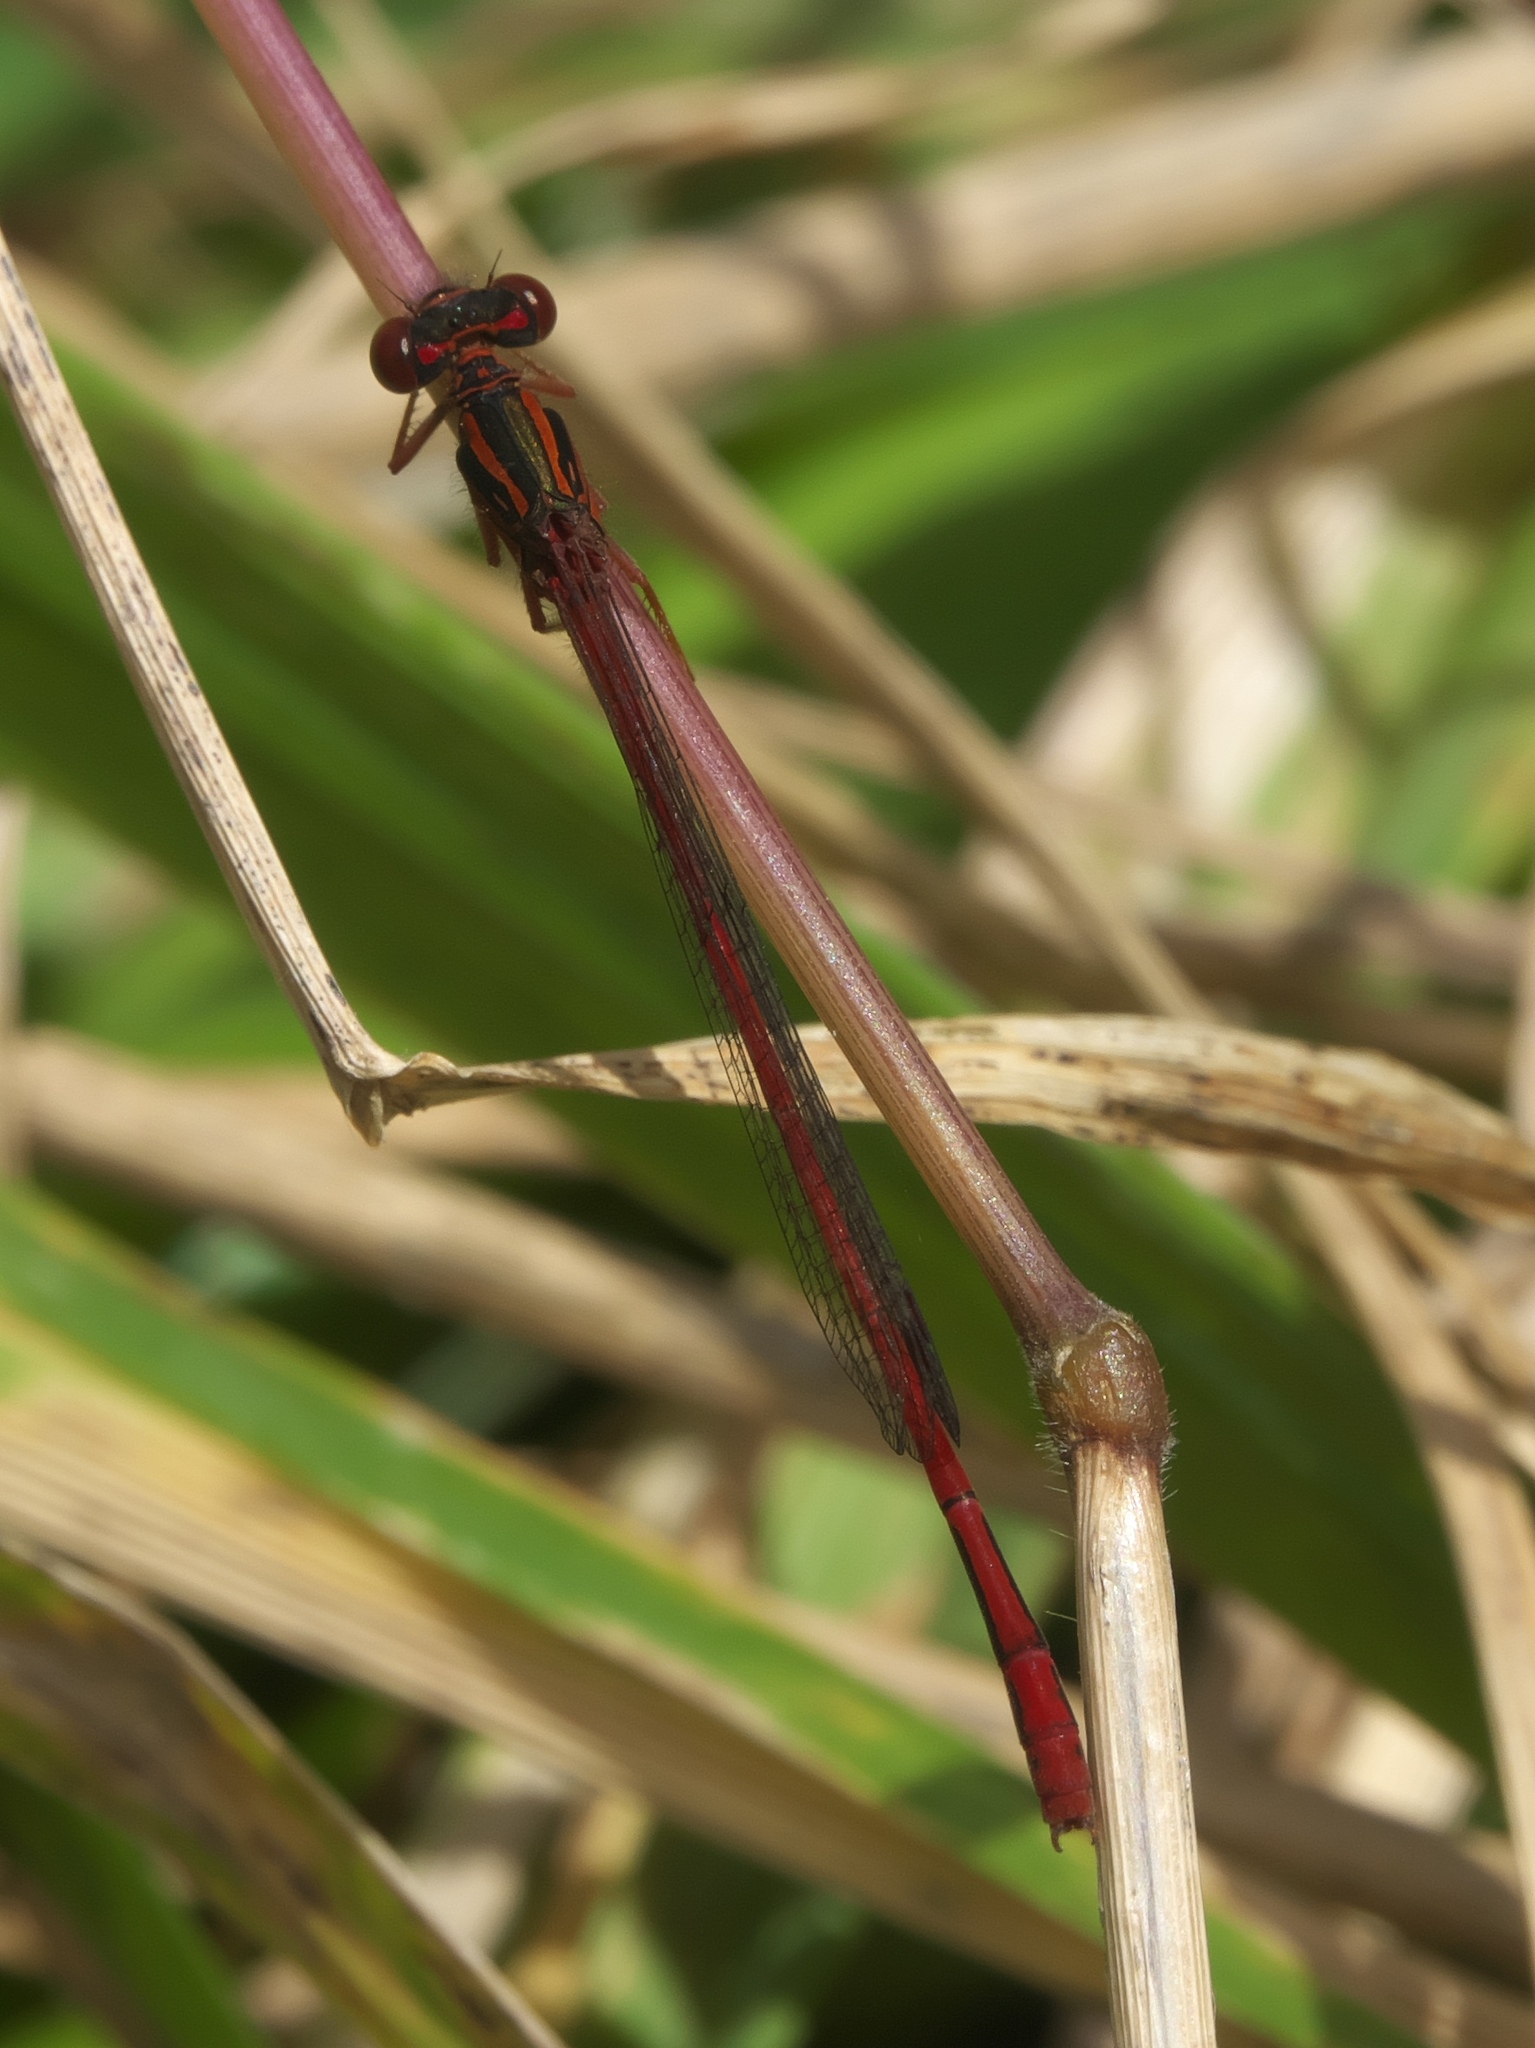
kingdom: Animalia
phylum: Arthropoda
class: Insecta
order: Odonata
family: Coenagrionidae
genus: Xanthocnemis
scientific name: Xanthocnemis zealandica
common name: Common redcoat damselfly
